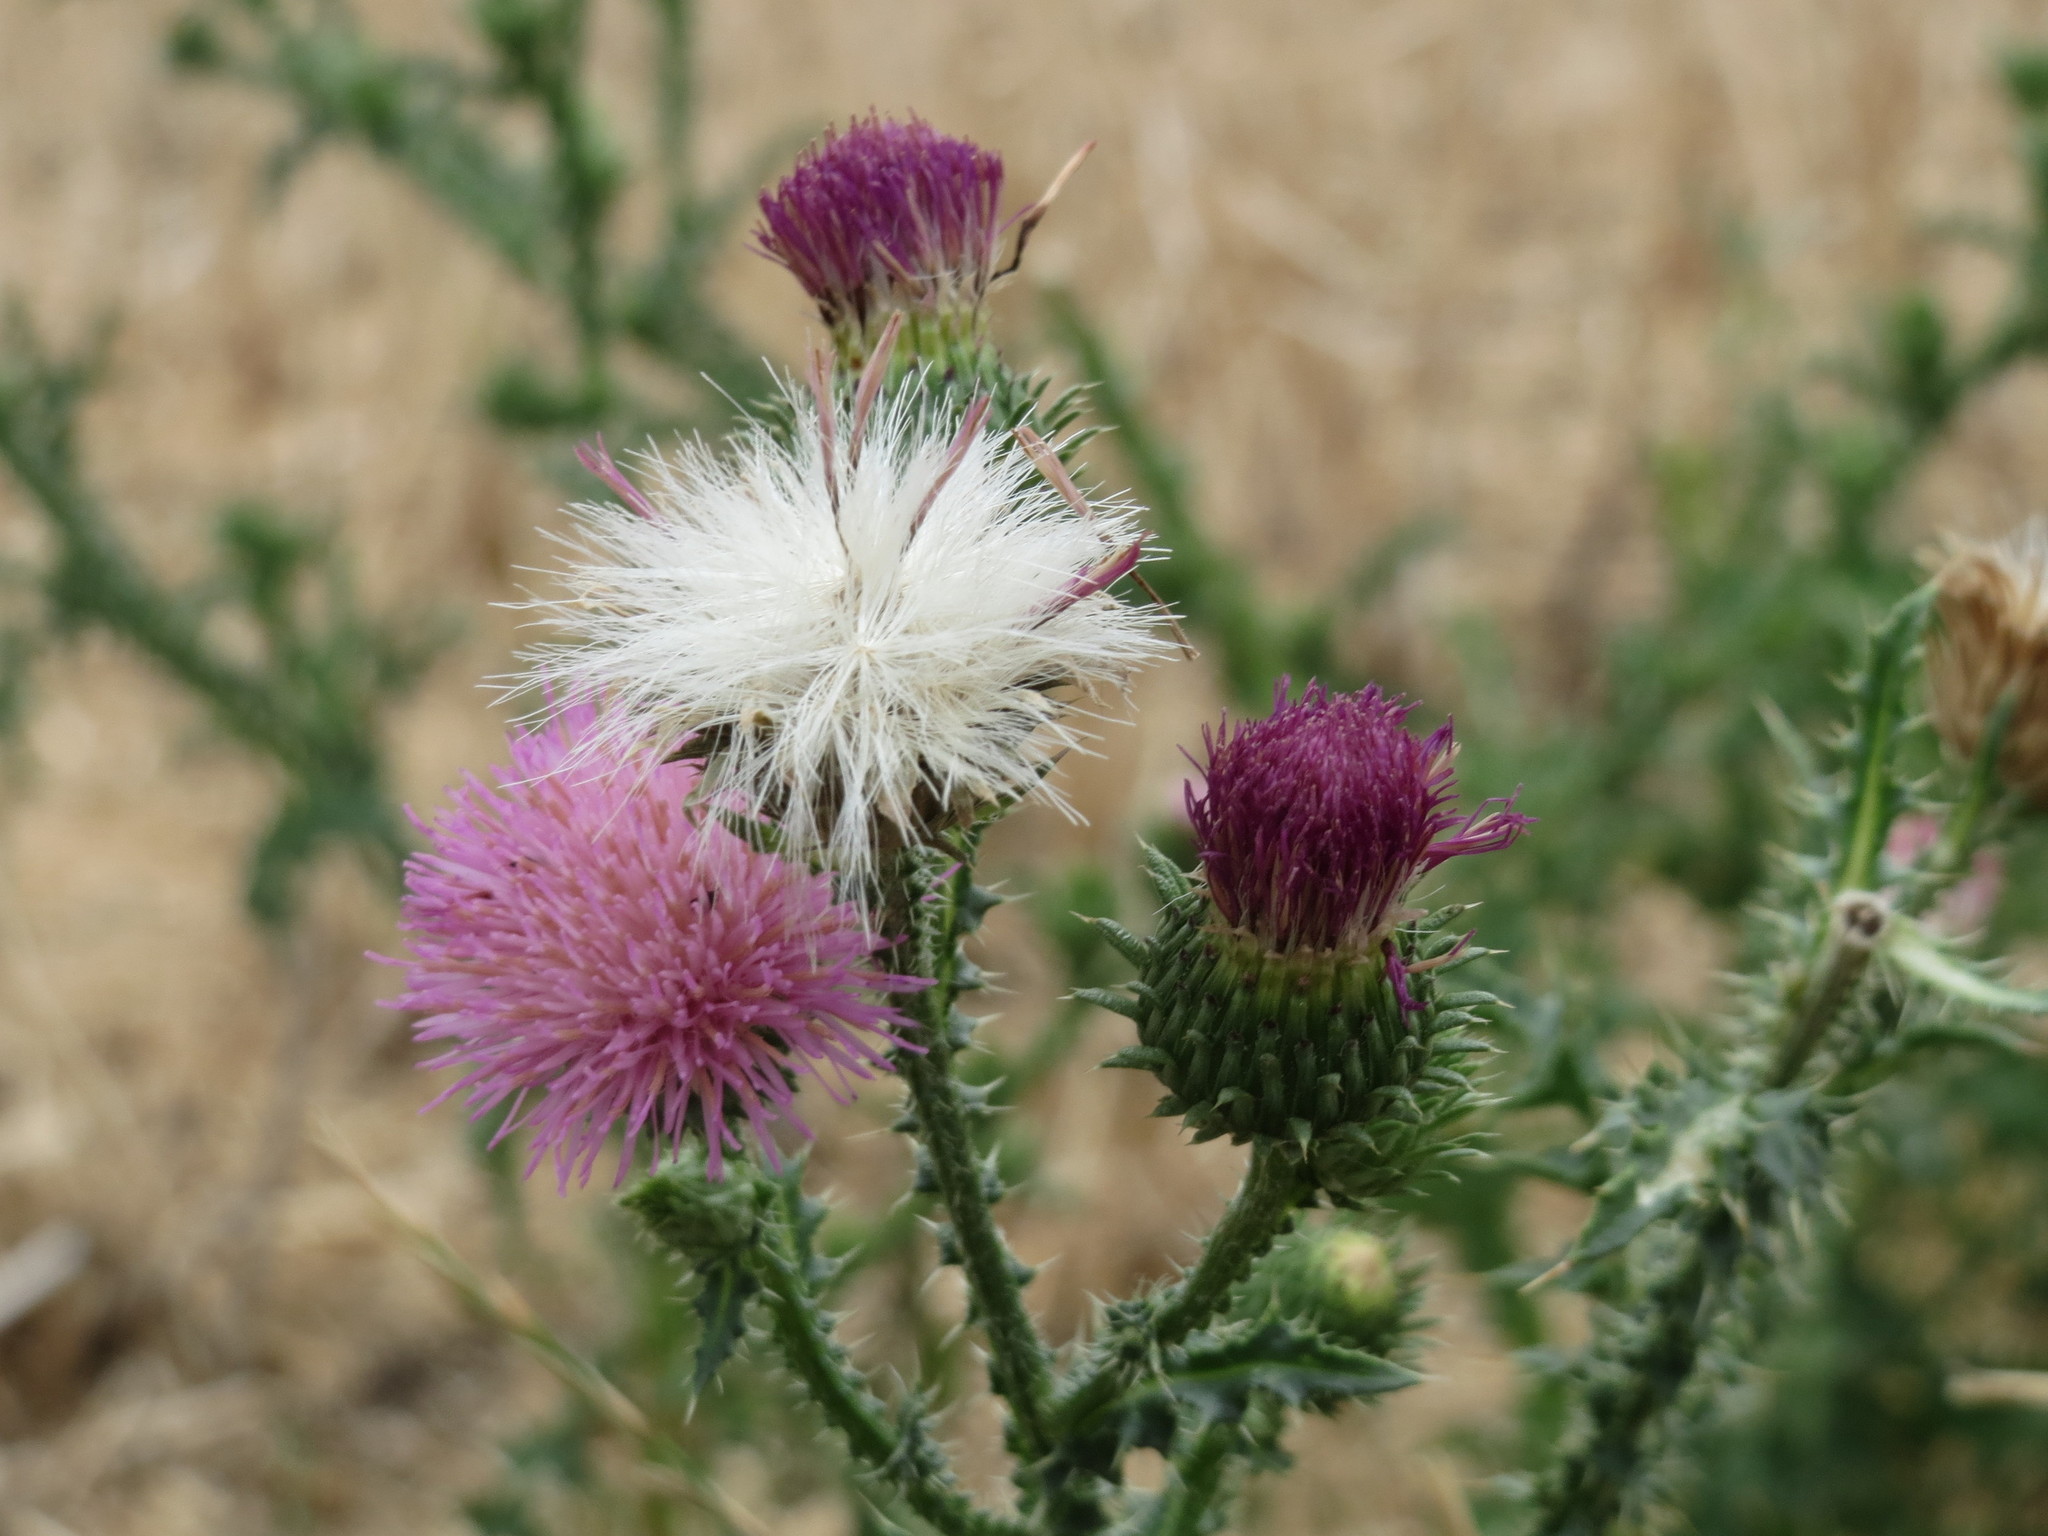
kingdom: Plantae
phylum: Tracheophyta
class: Magnoliopsida
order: Asterales
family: Asteraceae
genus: Carduus
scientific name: Carduus acanthoides
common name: Plumeless thistle
